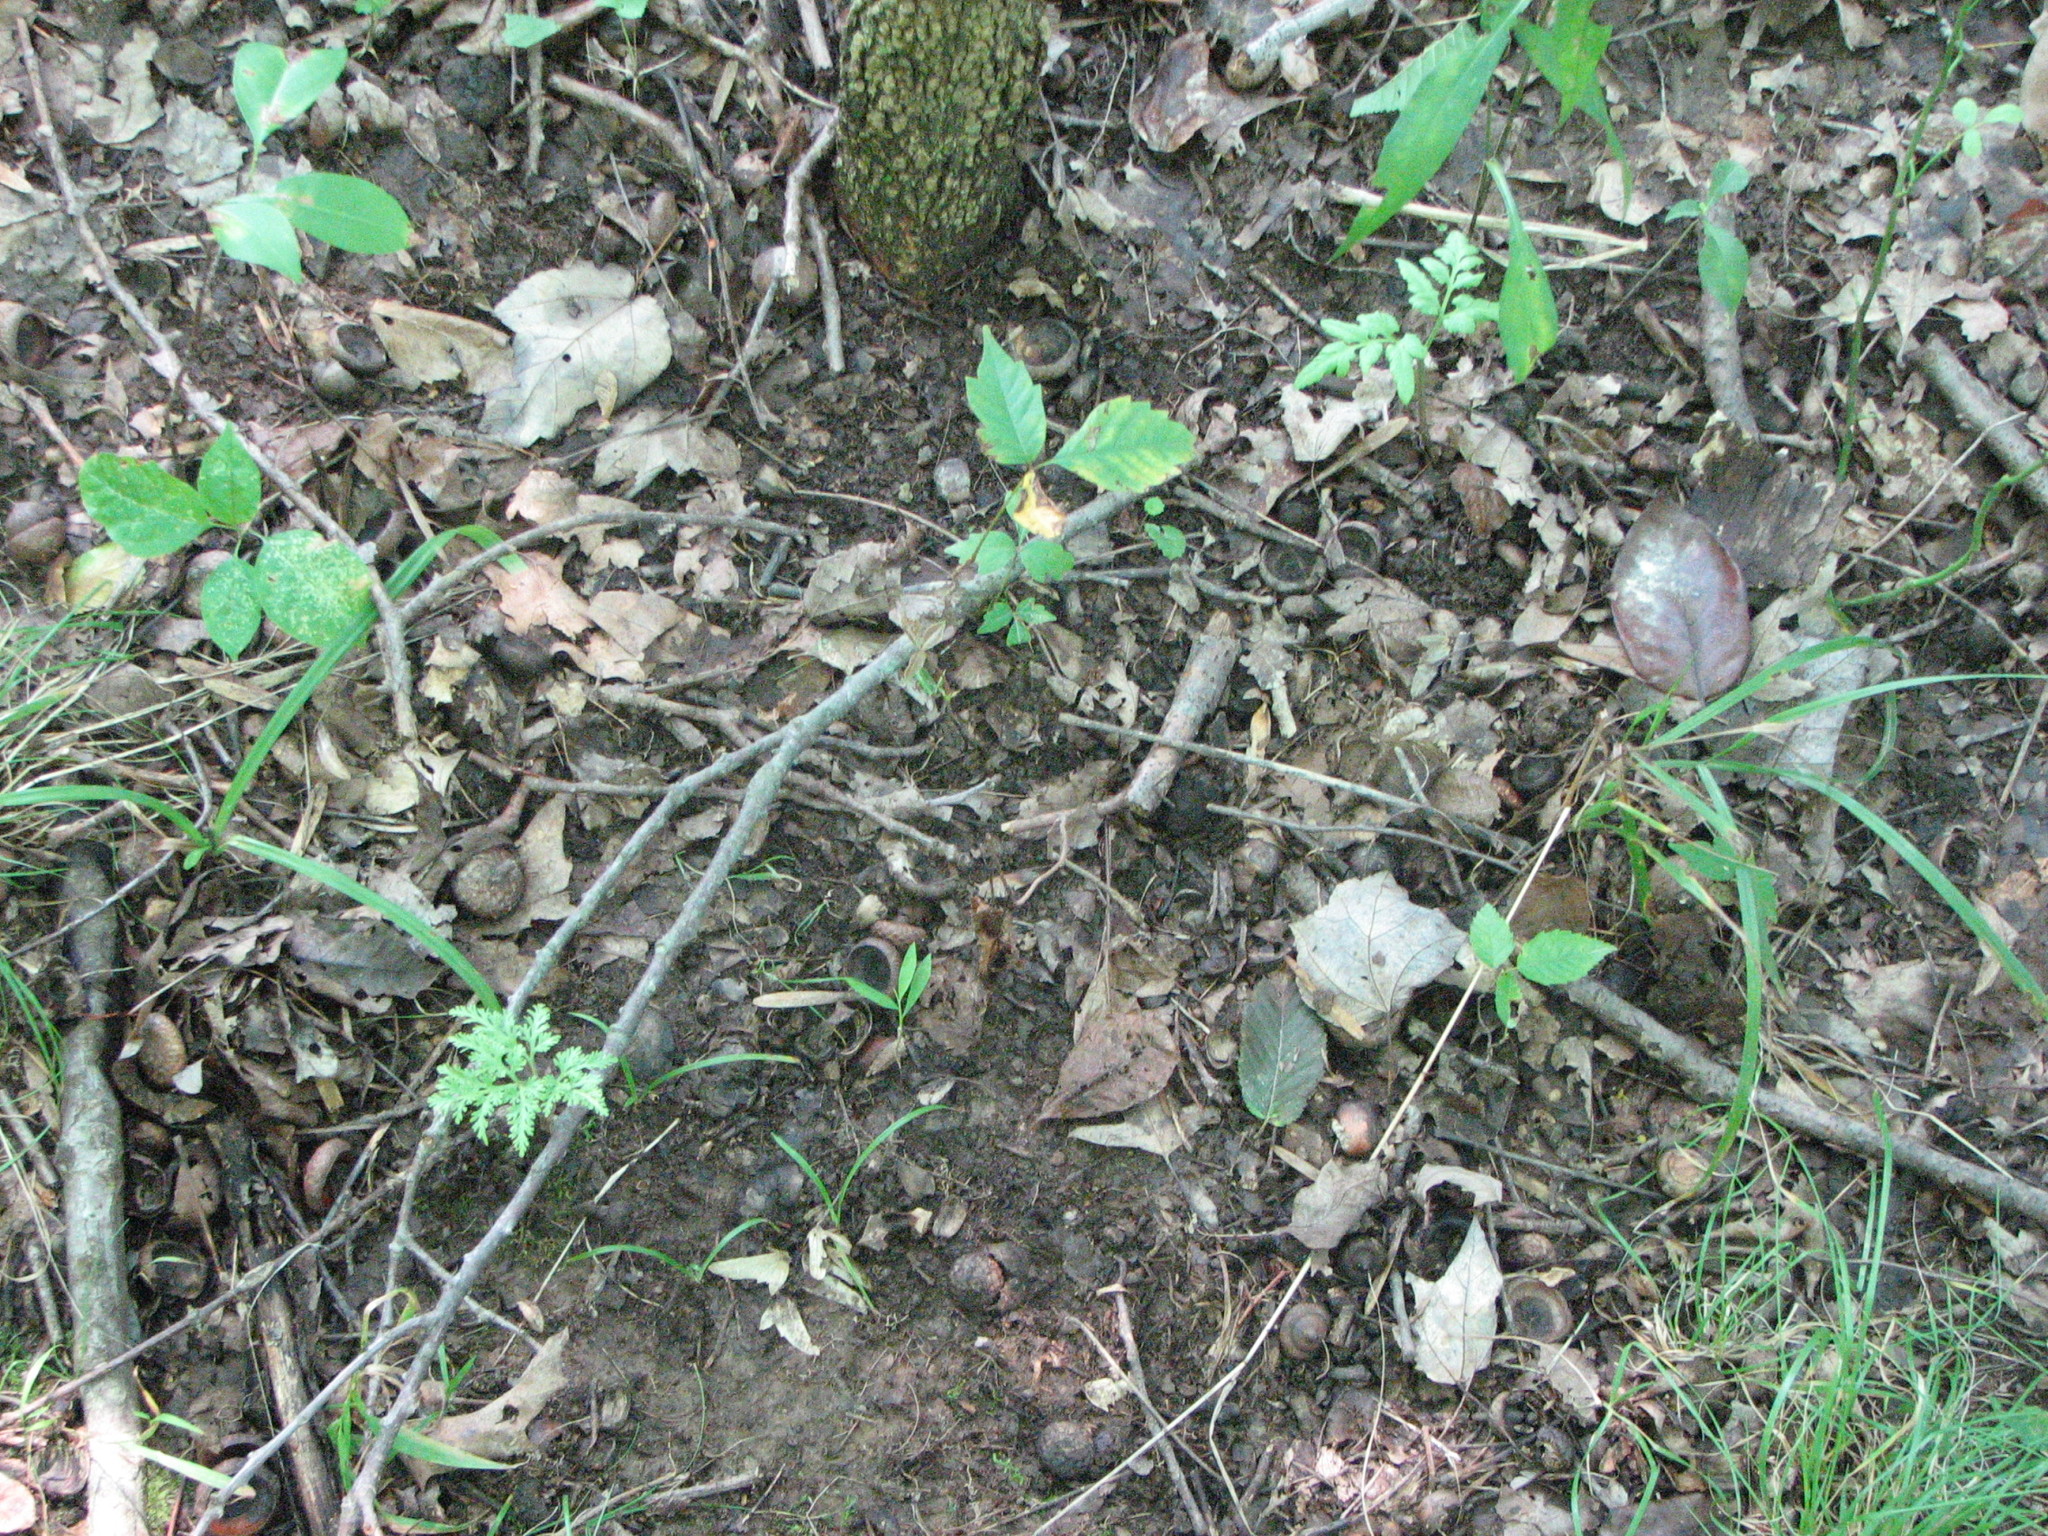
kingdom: Plantae
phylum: Tracheophyta
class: Polypodiopsida
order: Ophioglossales
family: Ophioglossaceae
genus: Sceptridium
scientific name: Sceptridium dissectum
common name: Cut-leaved grapefern
